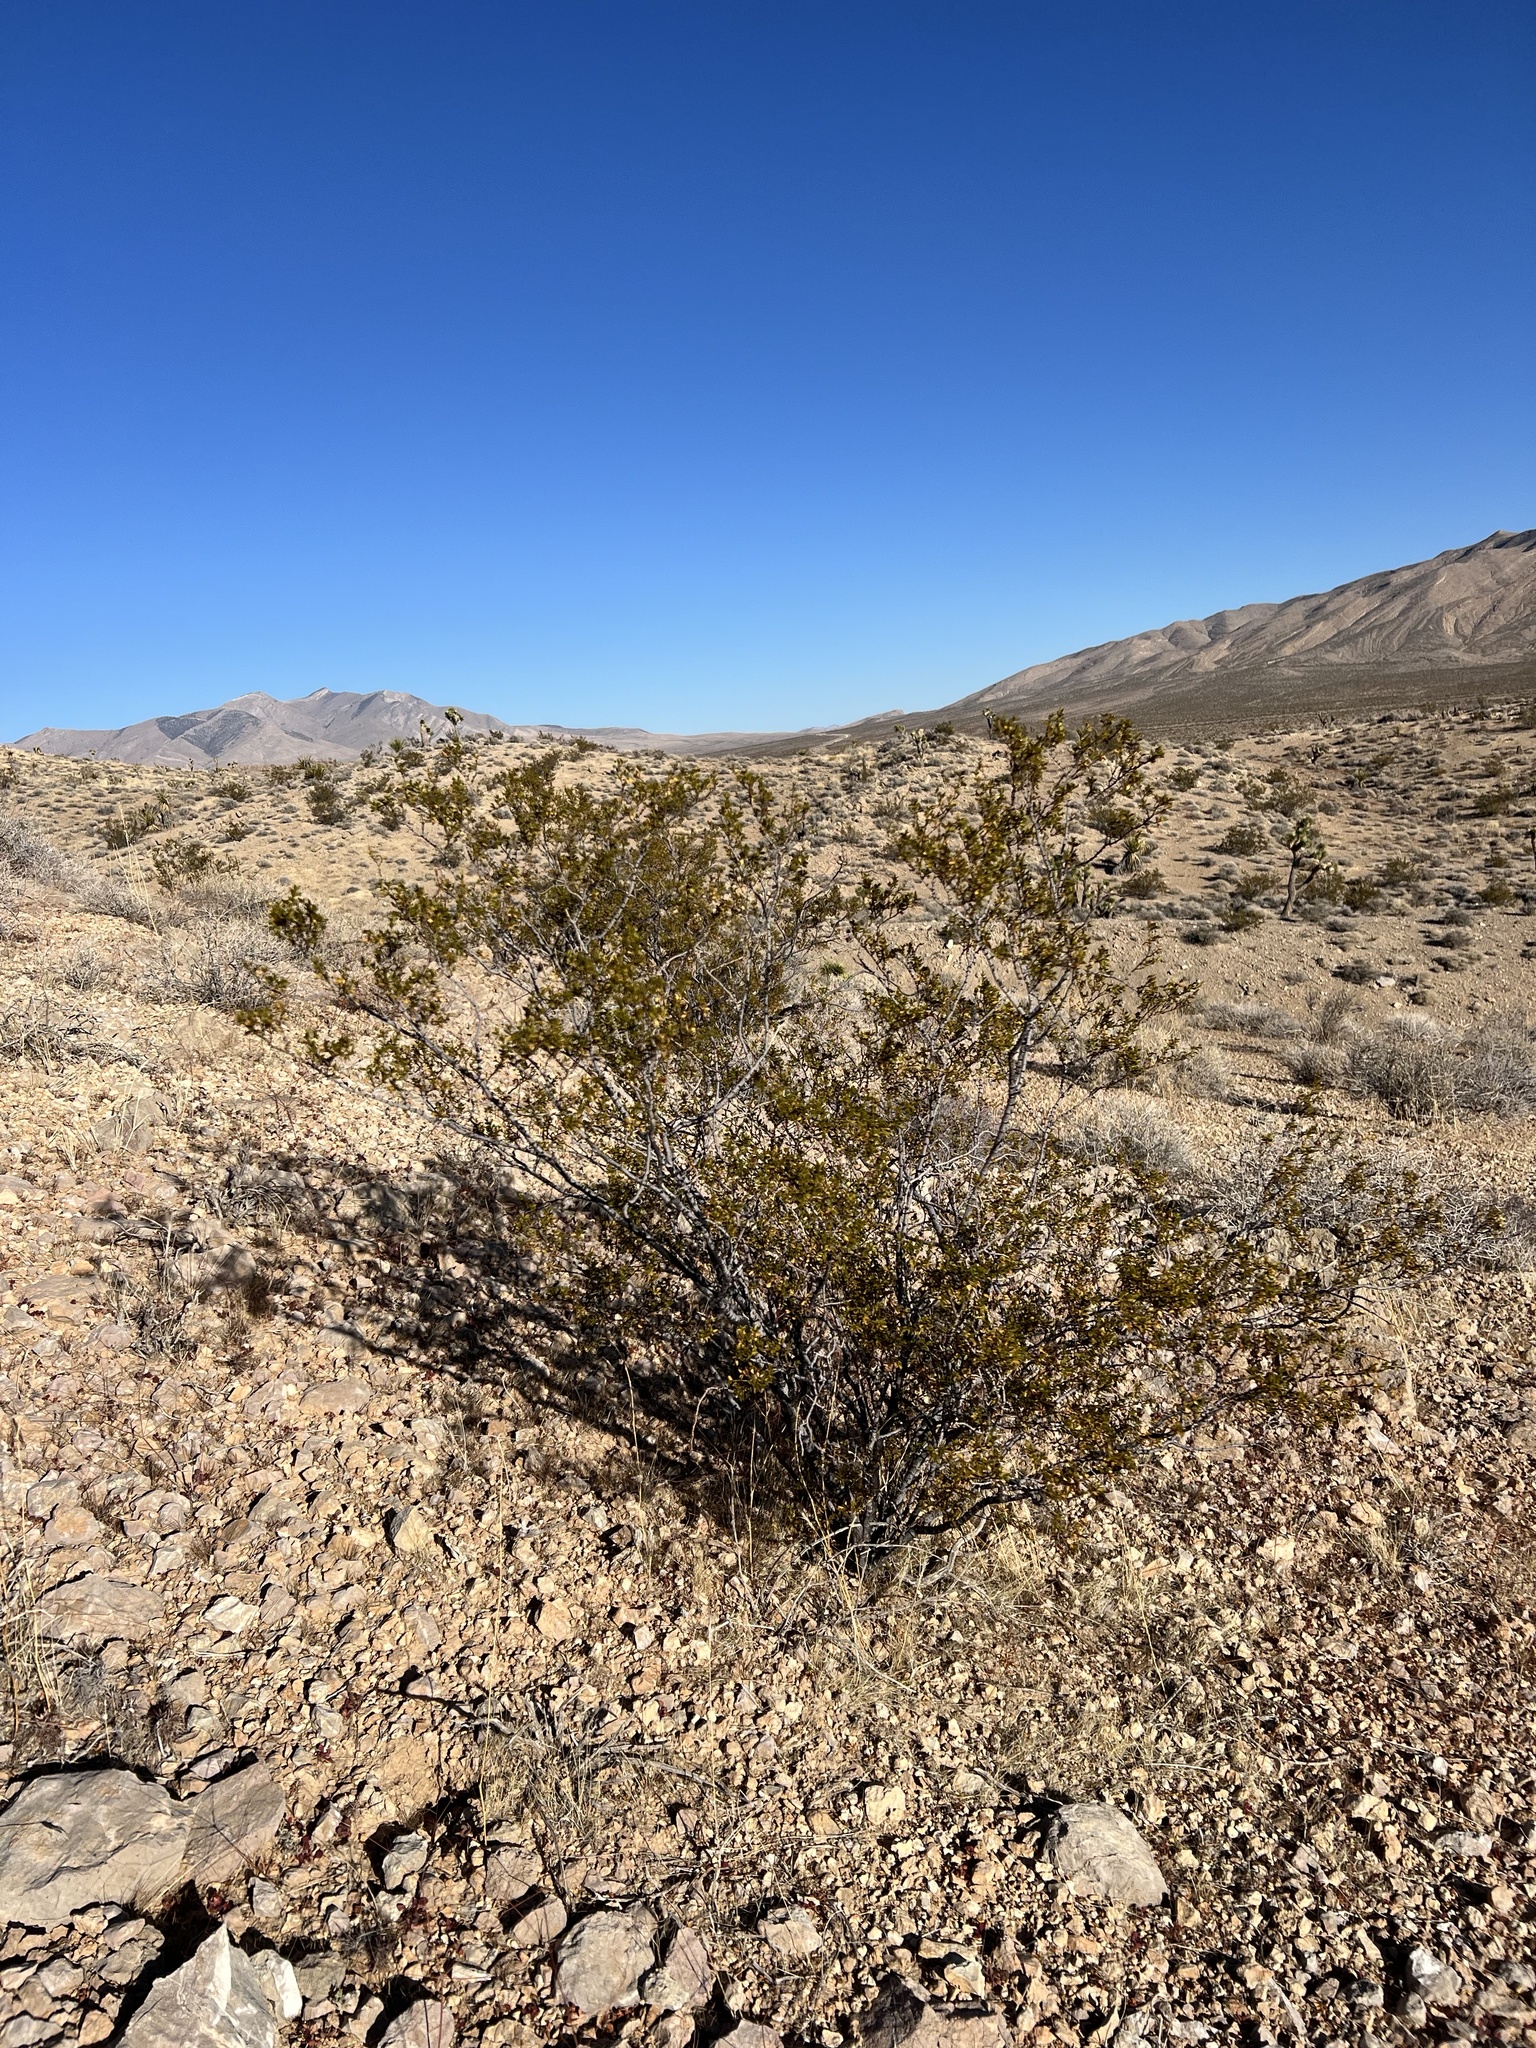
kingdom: Plantae
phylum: Tracheophyta
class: Magnoliopsida
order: Zygophyllales
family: Zygophyllaceae
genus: Larrea
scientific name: Larrea tridentata
